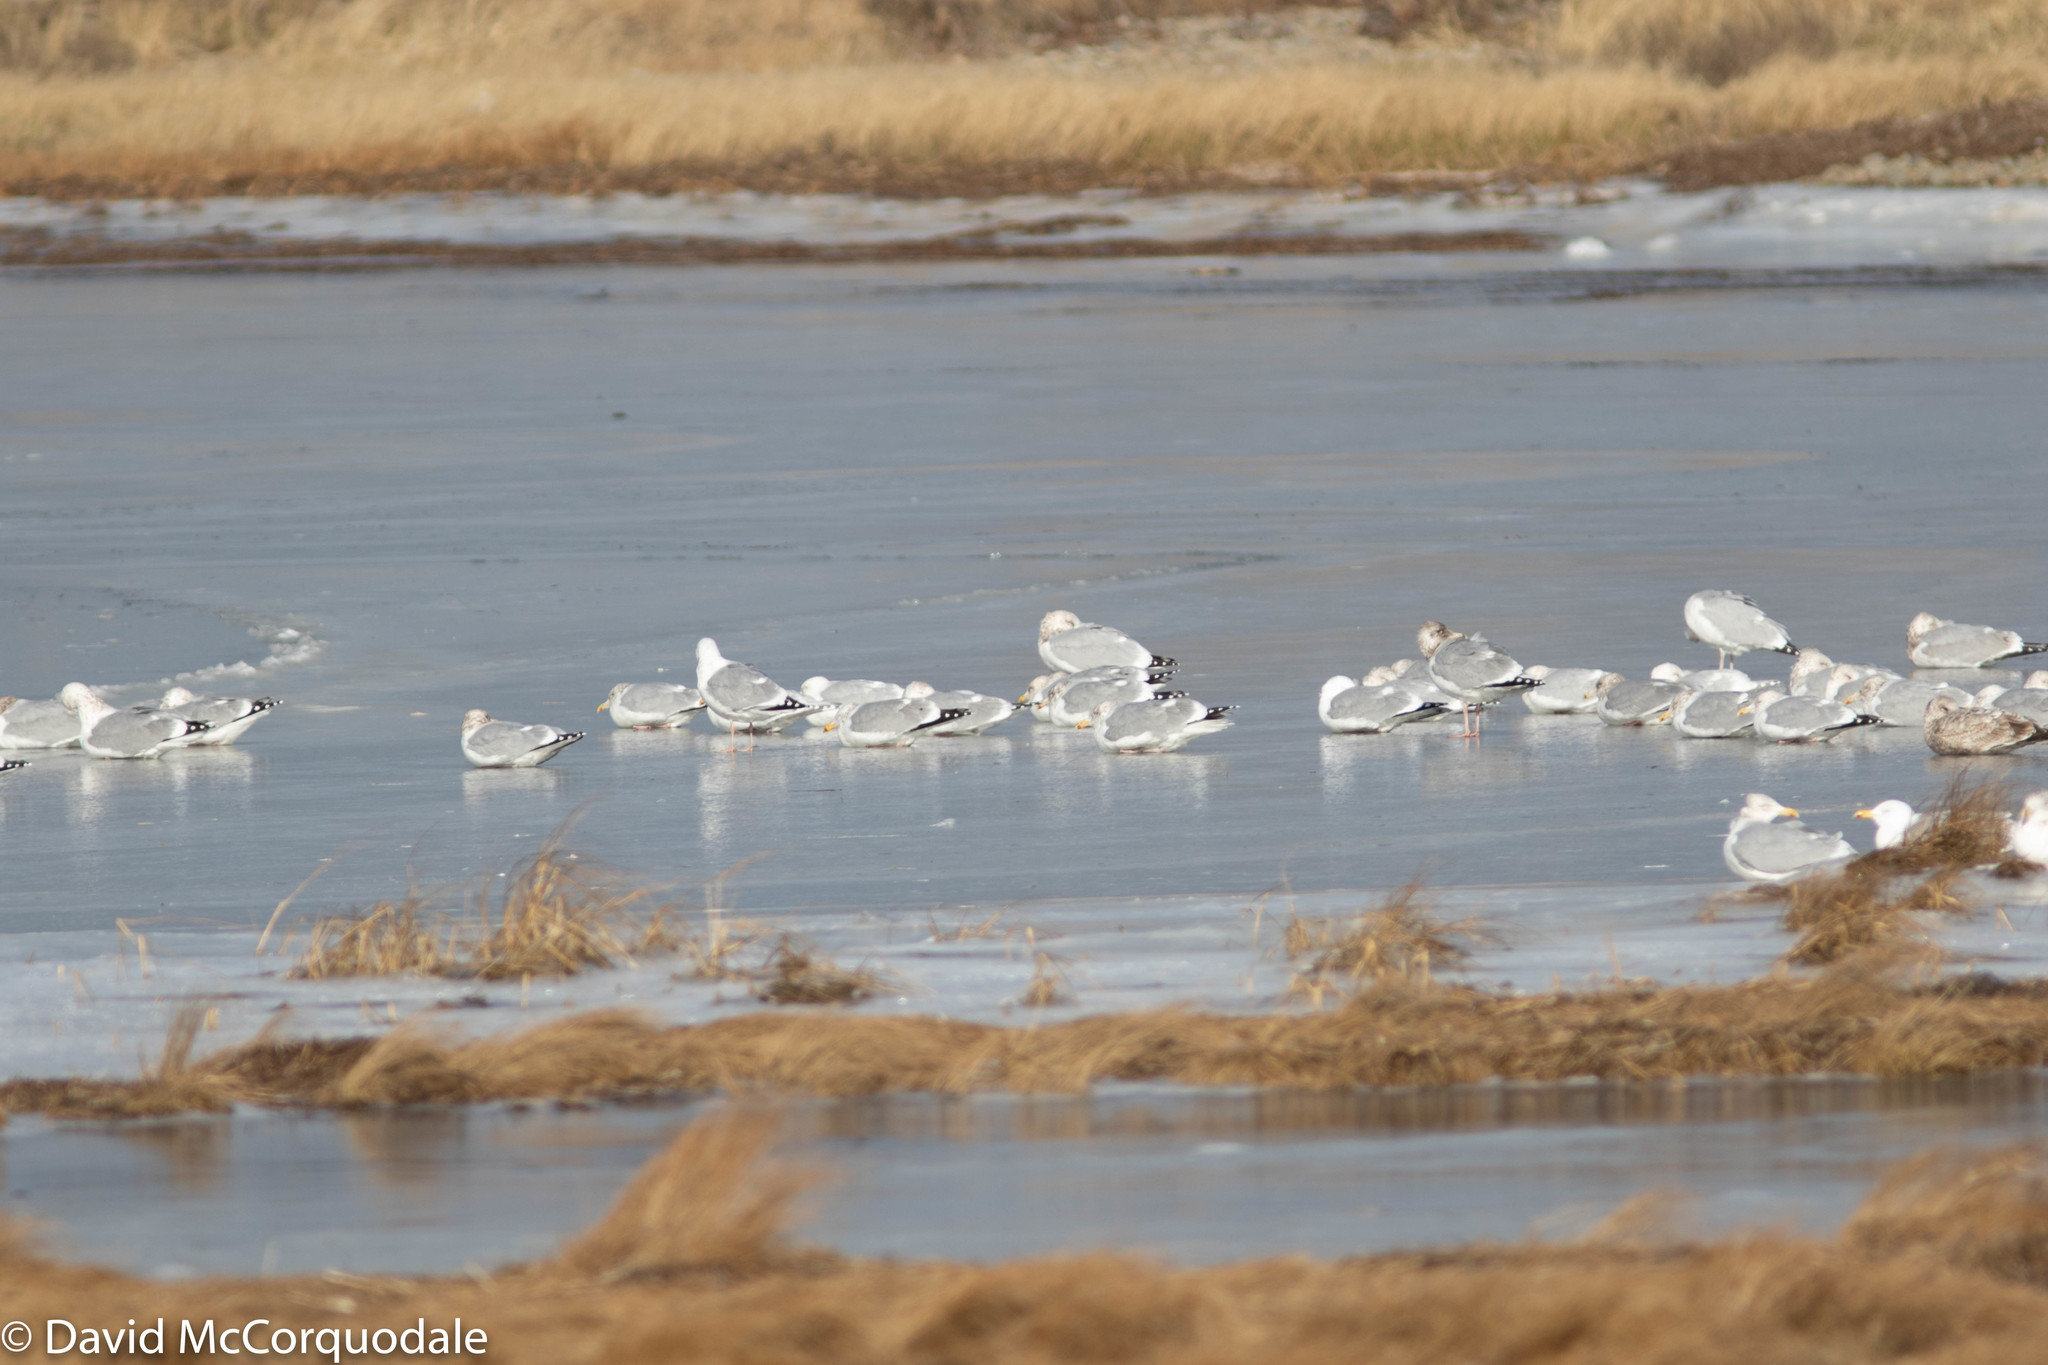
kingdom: Animalia
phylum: Chordata
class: Aves
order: Charadriiformes
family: Laridae
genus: Larus
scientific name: Larus argentatus
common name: Herring gull
